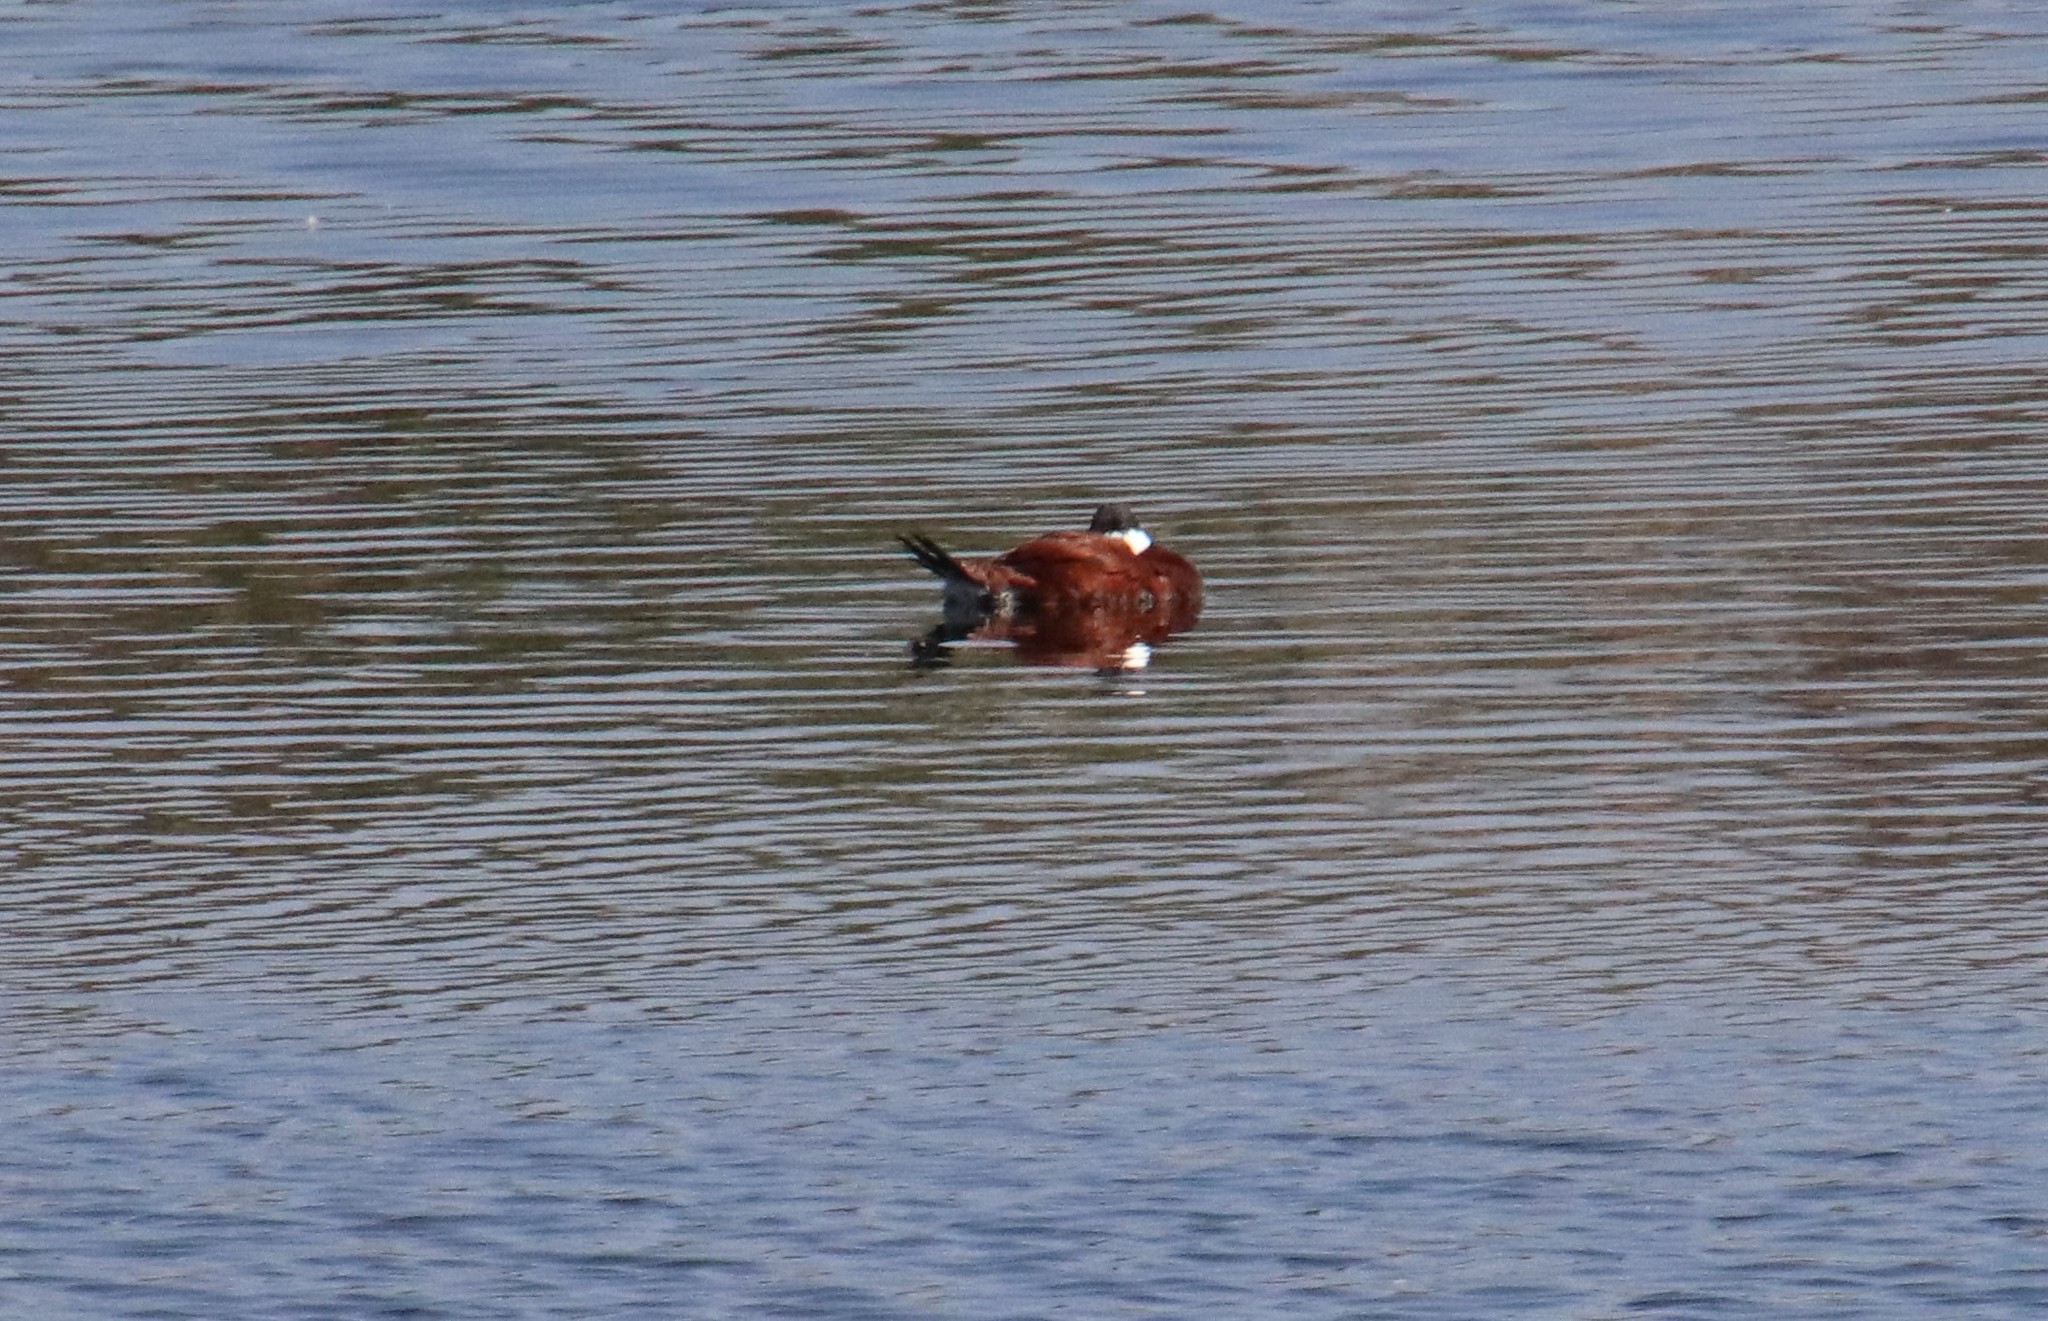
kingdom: Animalia
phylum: Chordata
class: Aves
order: Anseriformes
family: Anatidae
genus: Oxyura
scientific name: Oxyura jamaicensis
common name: Ruddy duck
